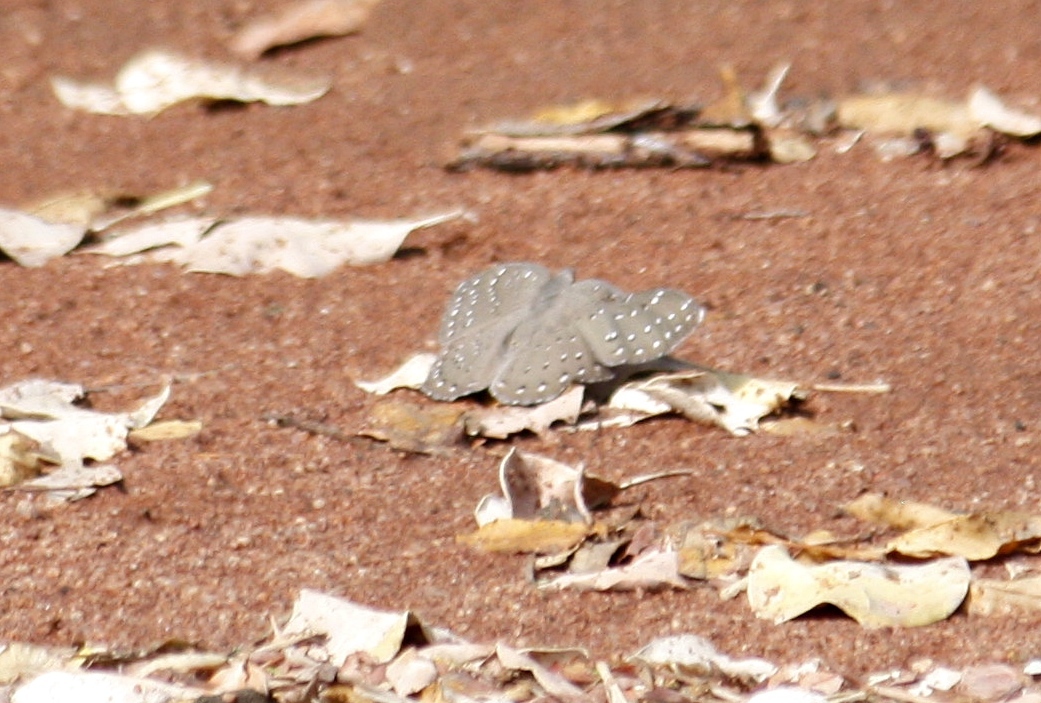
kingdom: Animalia
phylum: Arthropoda
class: Insecta
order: Lepidoptera
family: Nymphalidae
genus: Hamanumida
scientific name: Hamanumida daedalus
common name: Guinea-fowl butterfly
